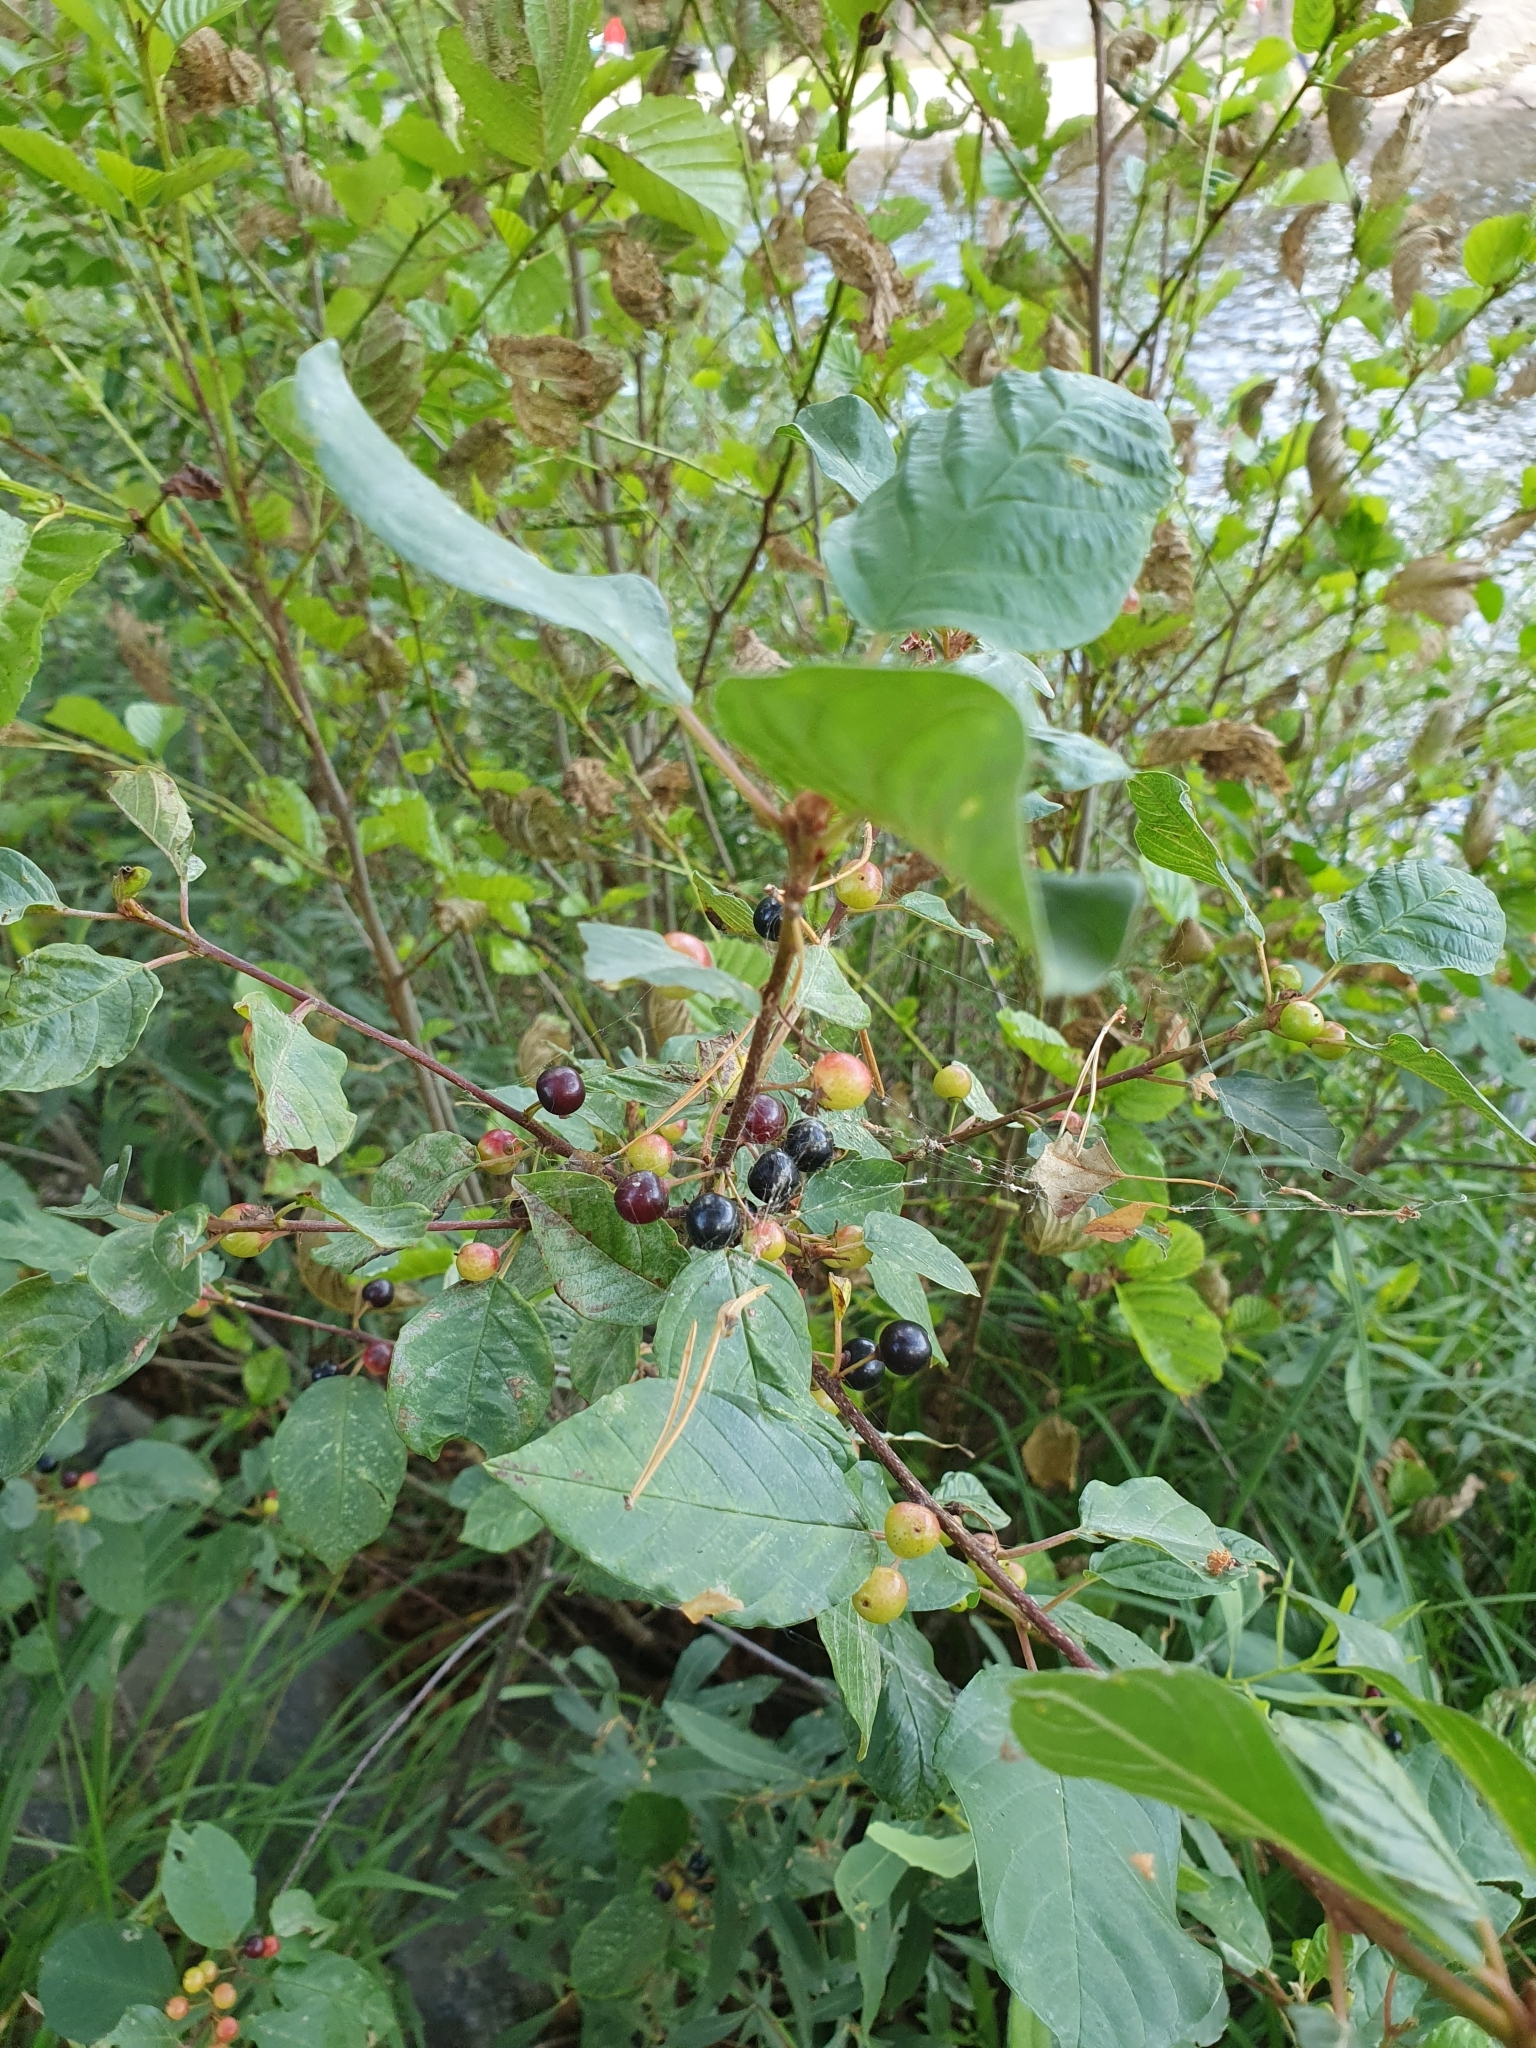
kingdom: Plantae
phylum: Tracheophyta
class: Magnoliopsida
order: Rosales
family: Rhamnaceae
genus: Frangula
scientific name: Frangula alnus
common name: Alder buckthorn
